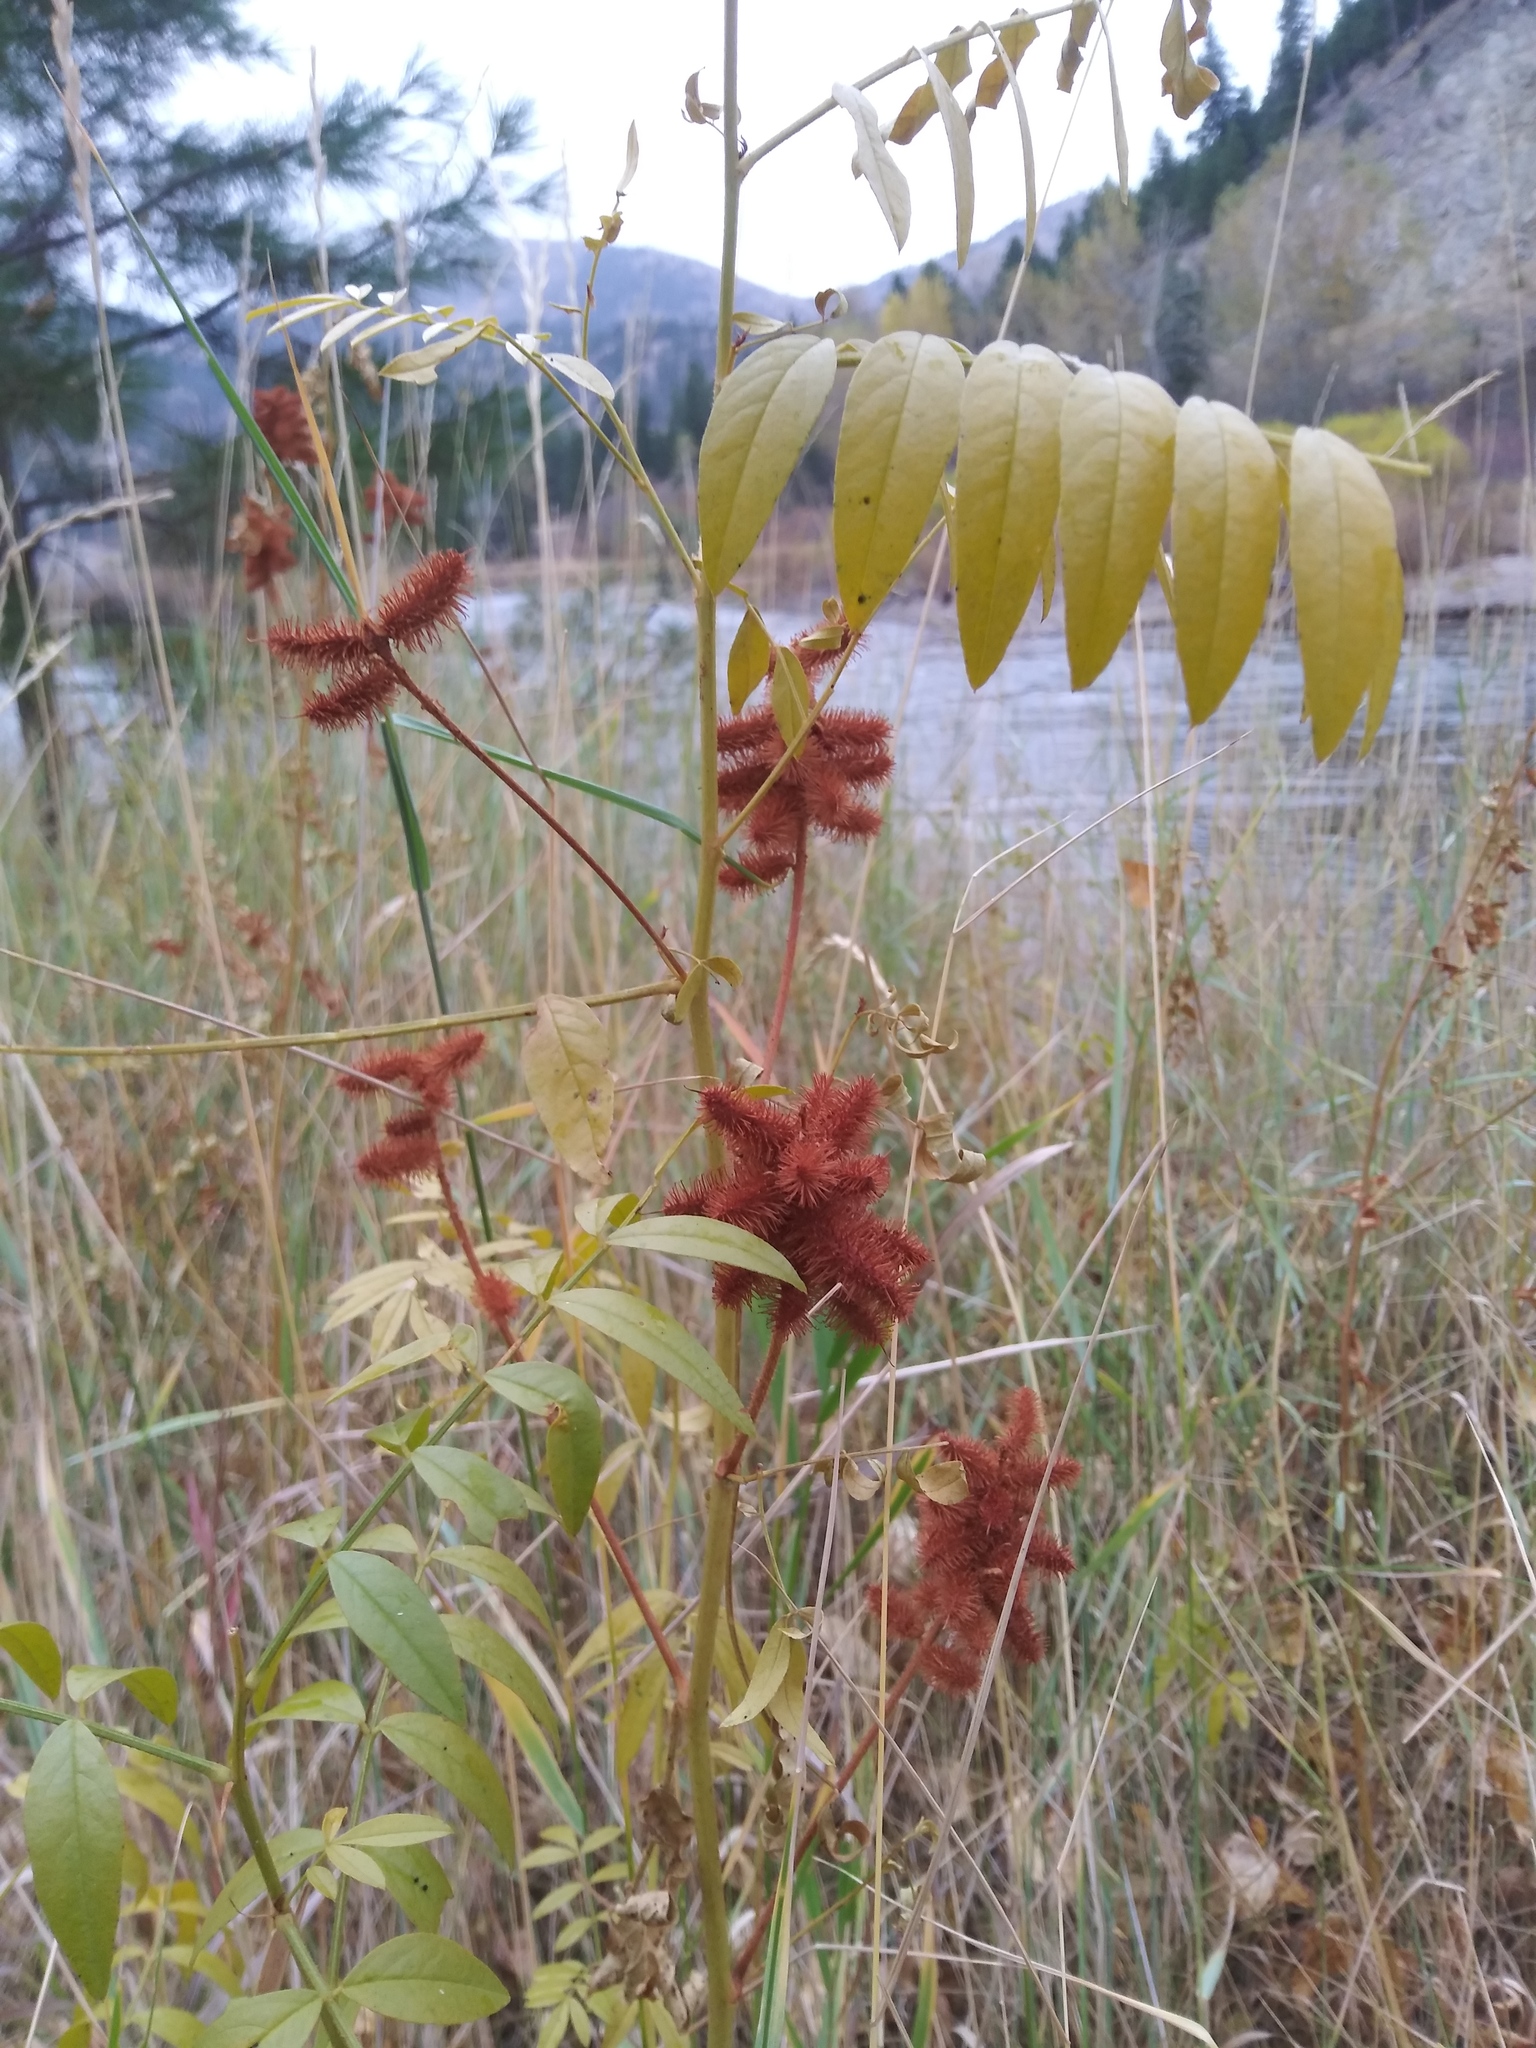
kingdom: Plantae
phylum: Tracheophyta
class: Magnoliopsida
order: Fabales
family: Fabaceae
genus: Glycyrrhiza
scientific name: Glycyrrhiza lepidota
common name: American liquorice
